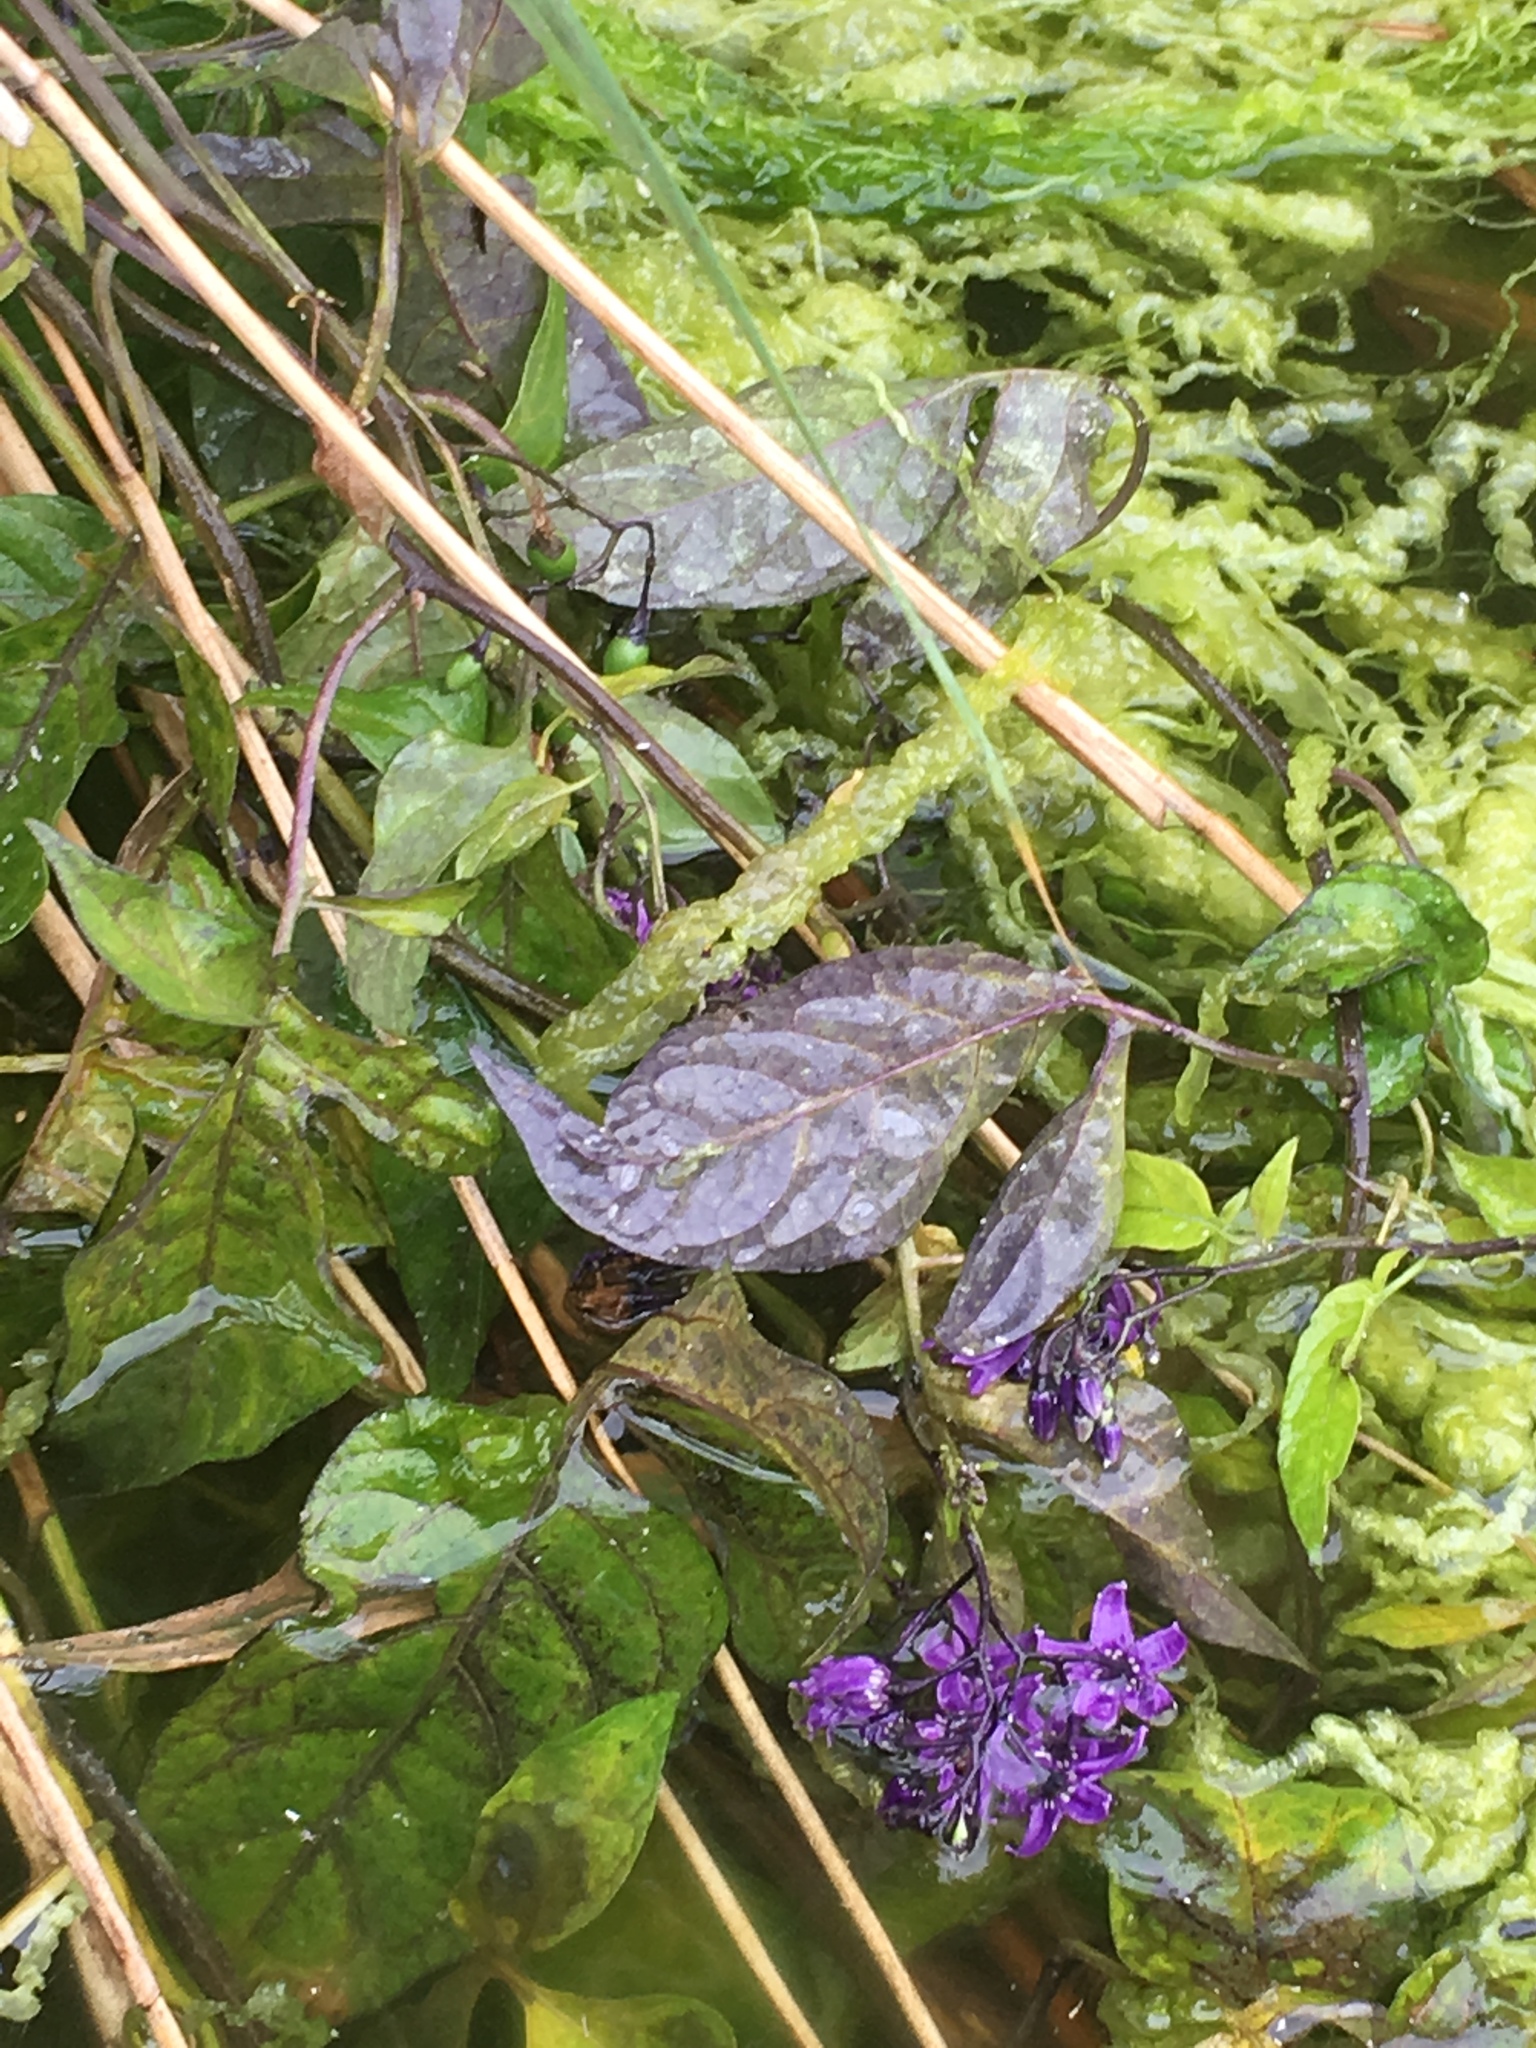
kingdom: Plantae
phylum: Tracheophyta
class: Magnoliopsida
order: Solanales
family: Solanaceae
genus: Solanum
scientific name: Solanum dulcamara
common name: Climbing nightshade
